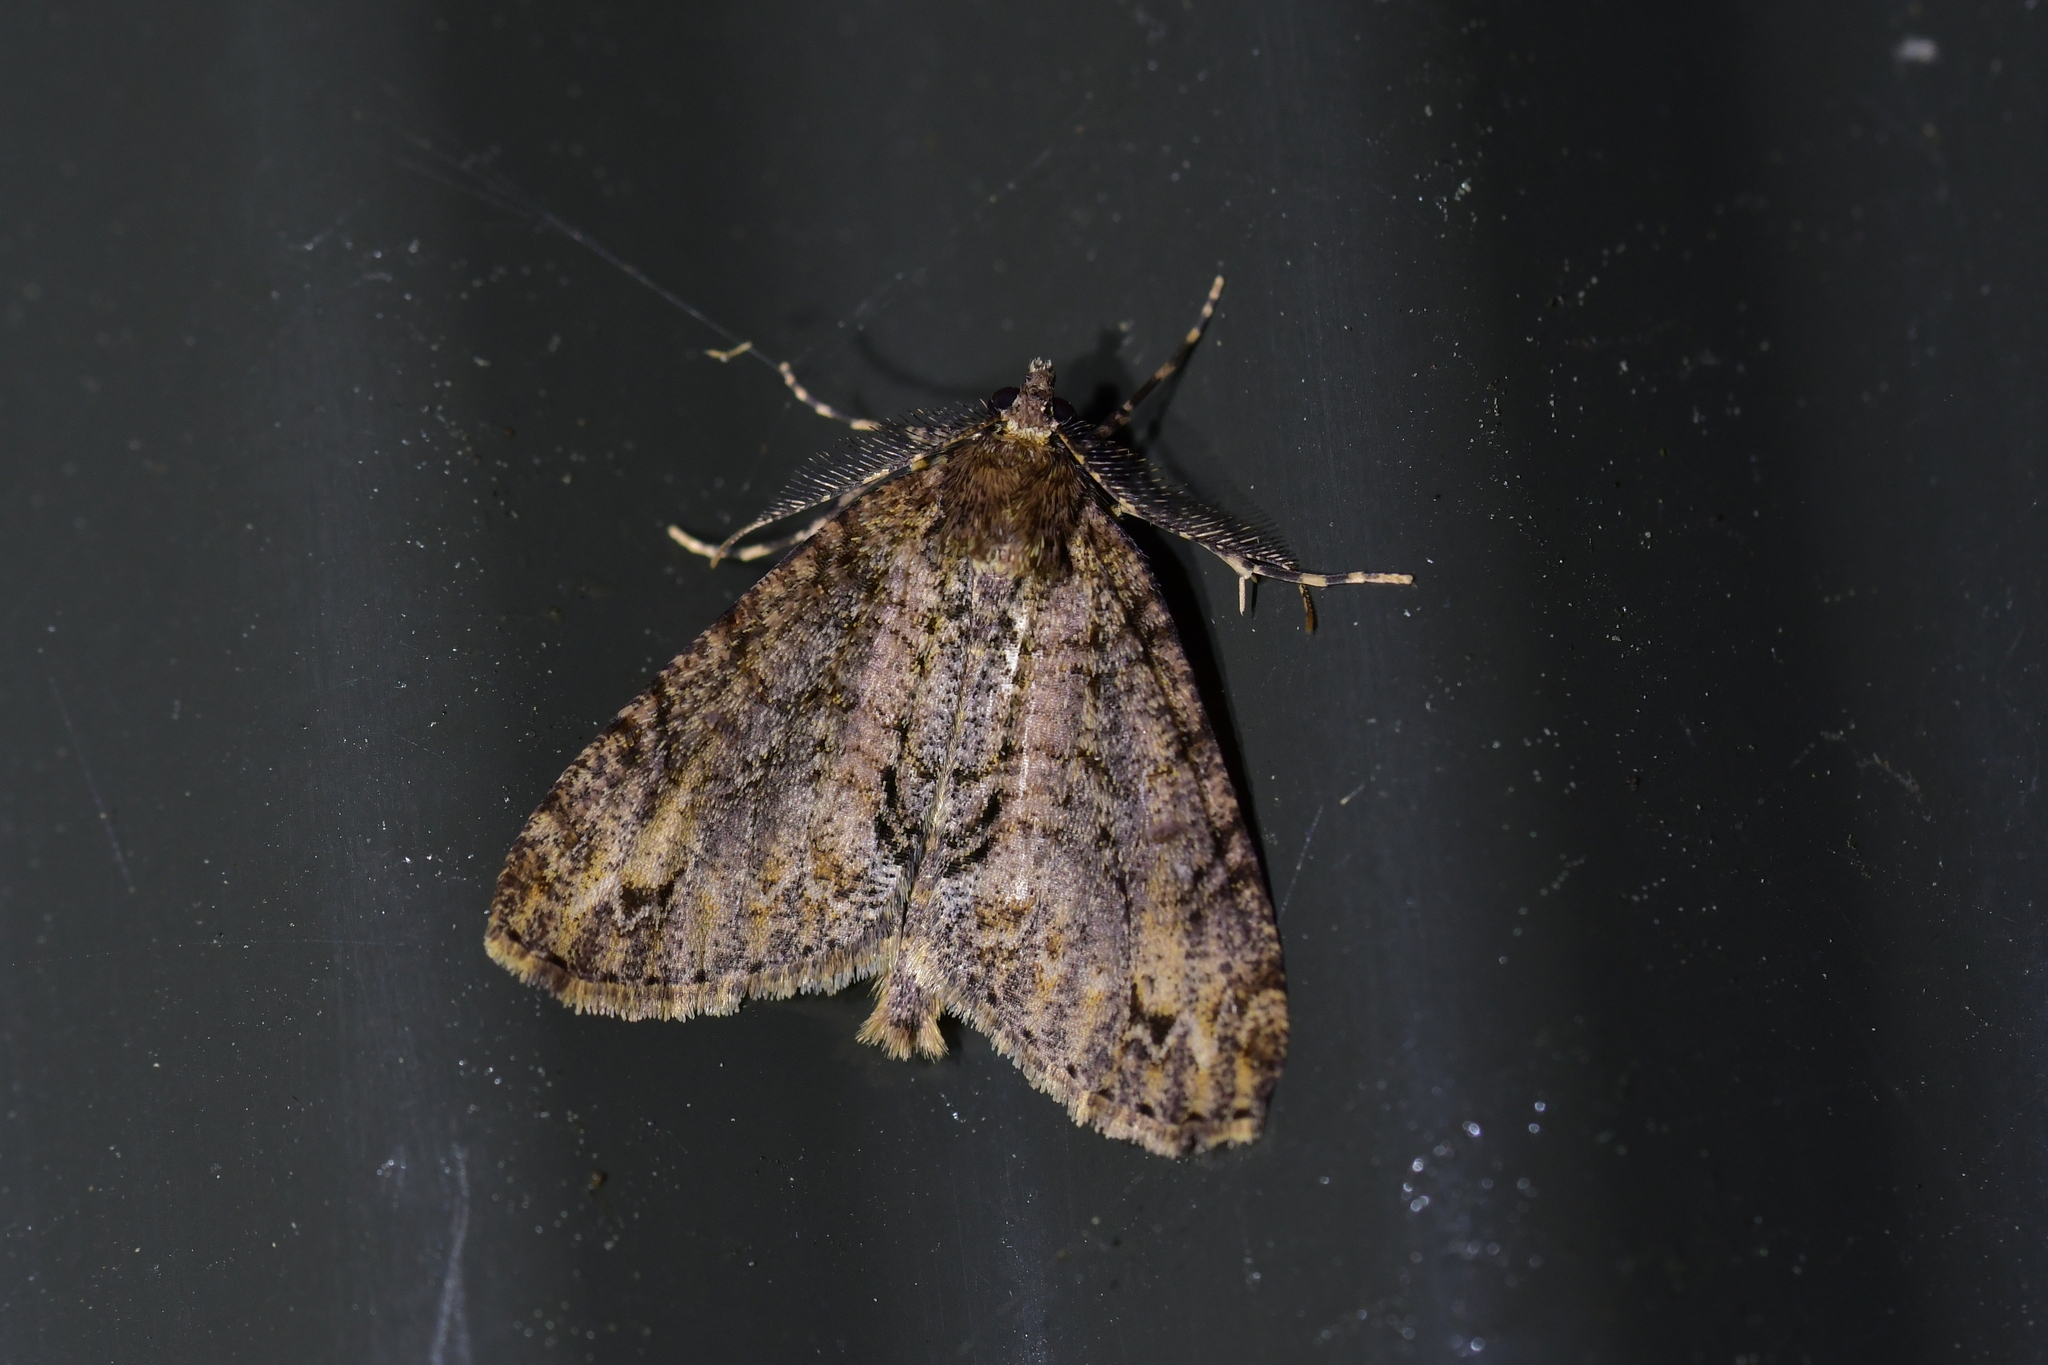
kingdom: Animalia
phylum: Arthropoda
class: Insecta
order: Lepidoptera
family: Geometridae
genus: Pseudocoremia
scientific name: Pseudocoremia suavis
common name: Common forest looper
